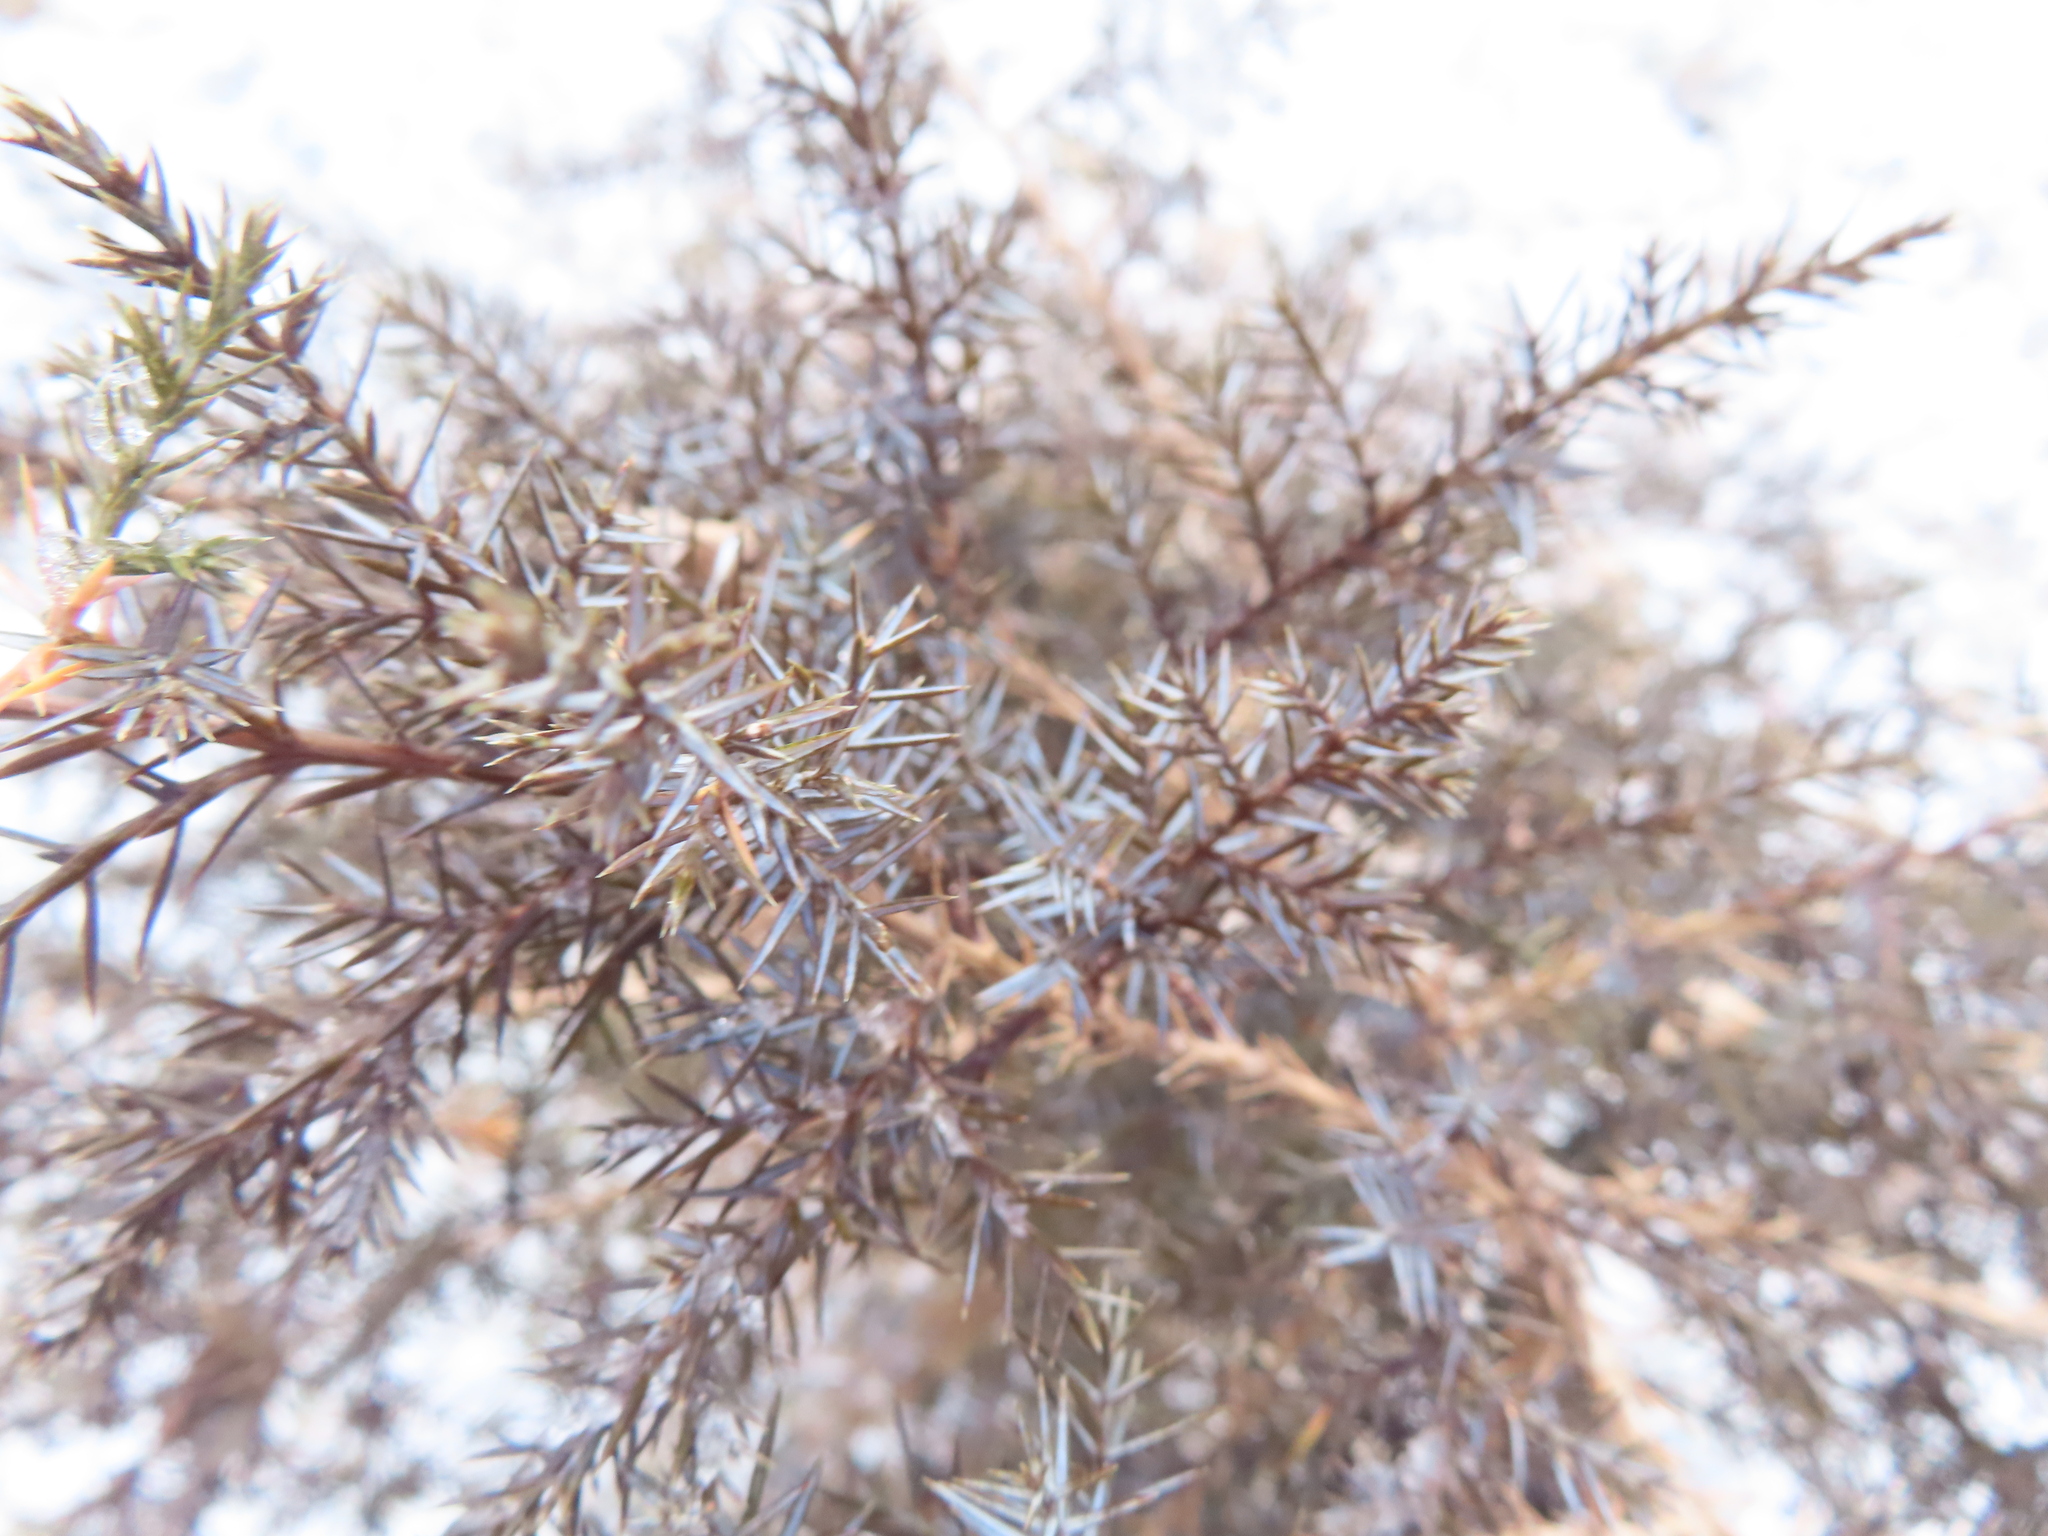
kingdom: Plantae
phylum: Tracheophyta
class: Pinopsida
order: Pinales
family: Cupressaceae
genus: Juniperus
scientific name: Juniperus virginiana
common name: Red juniper
